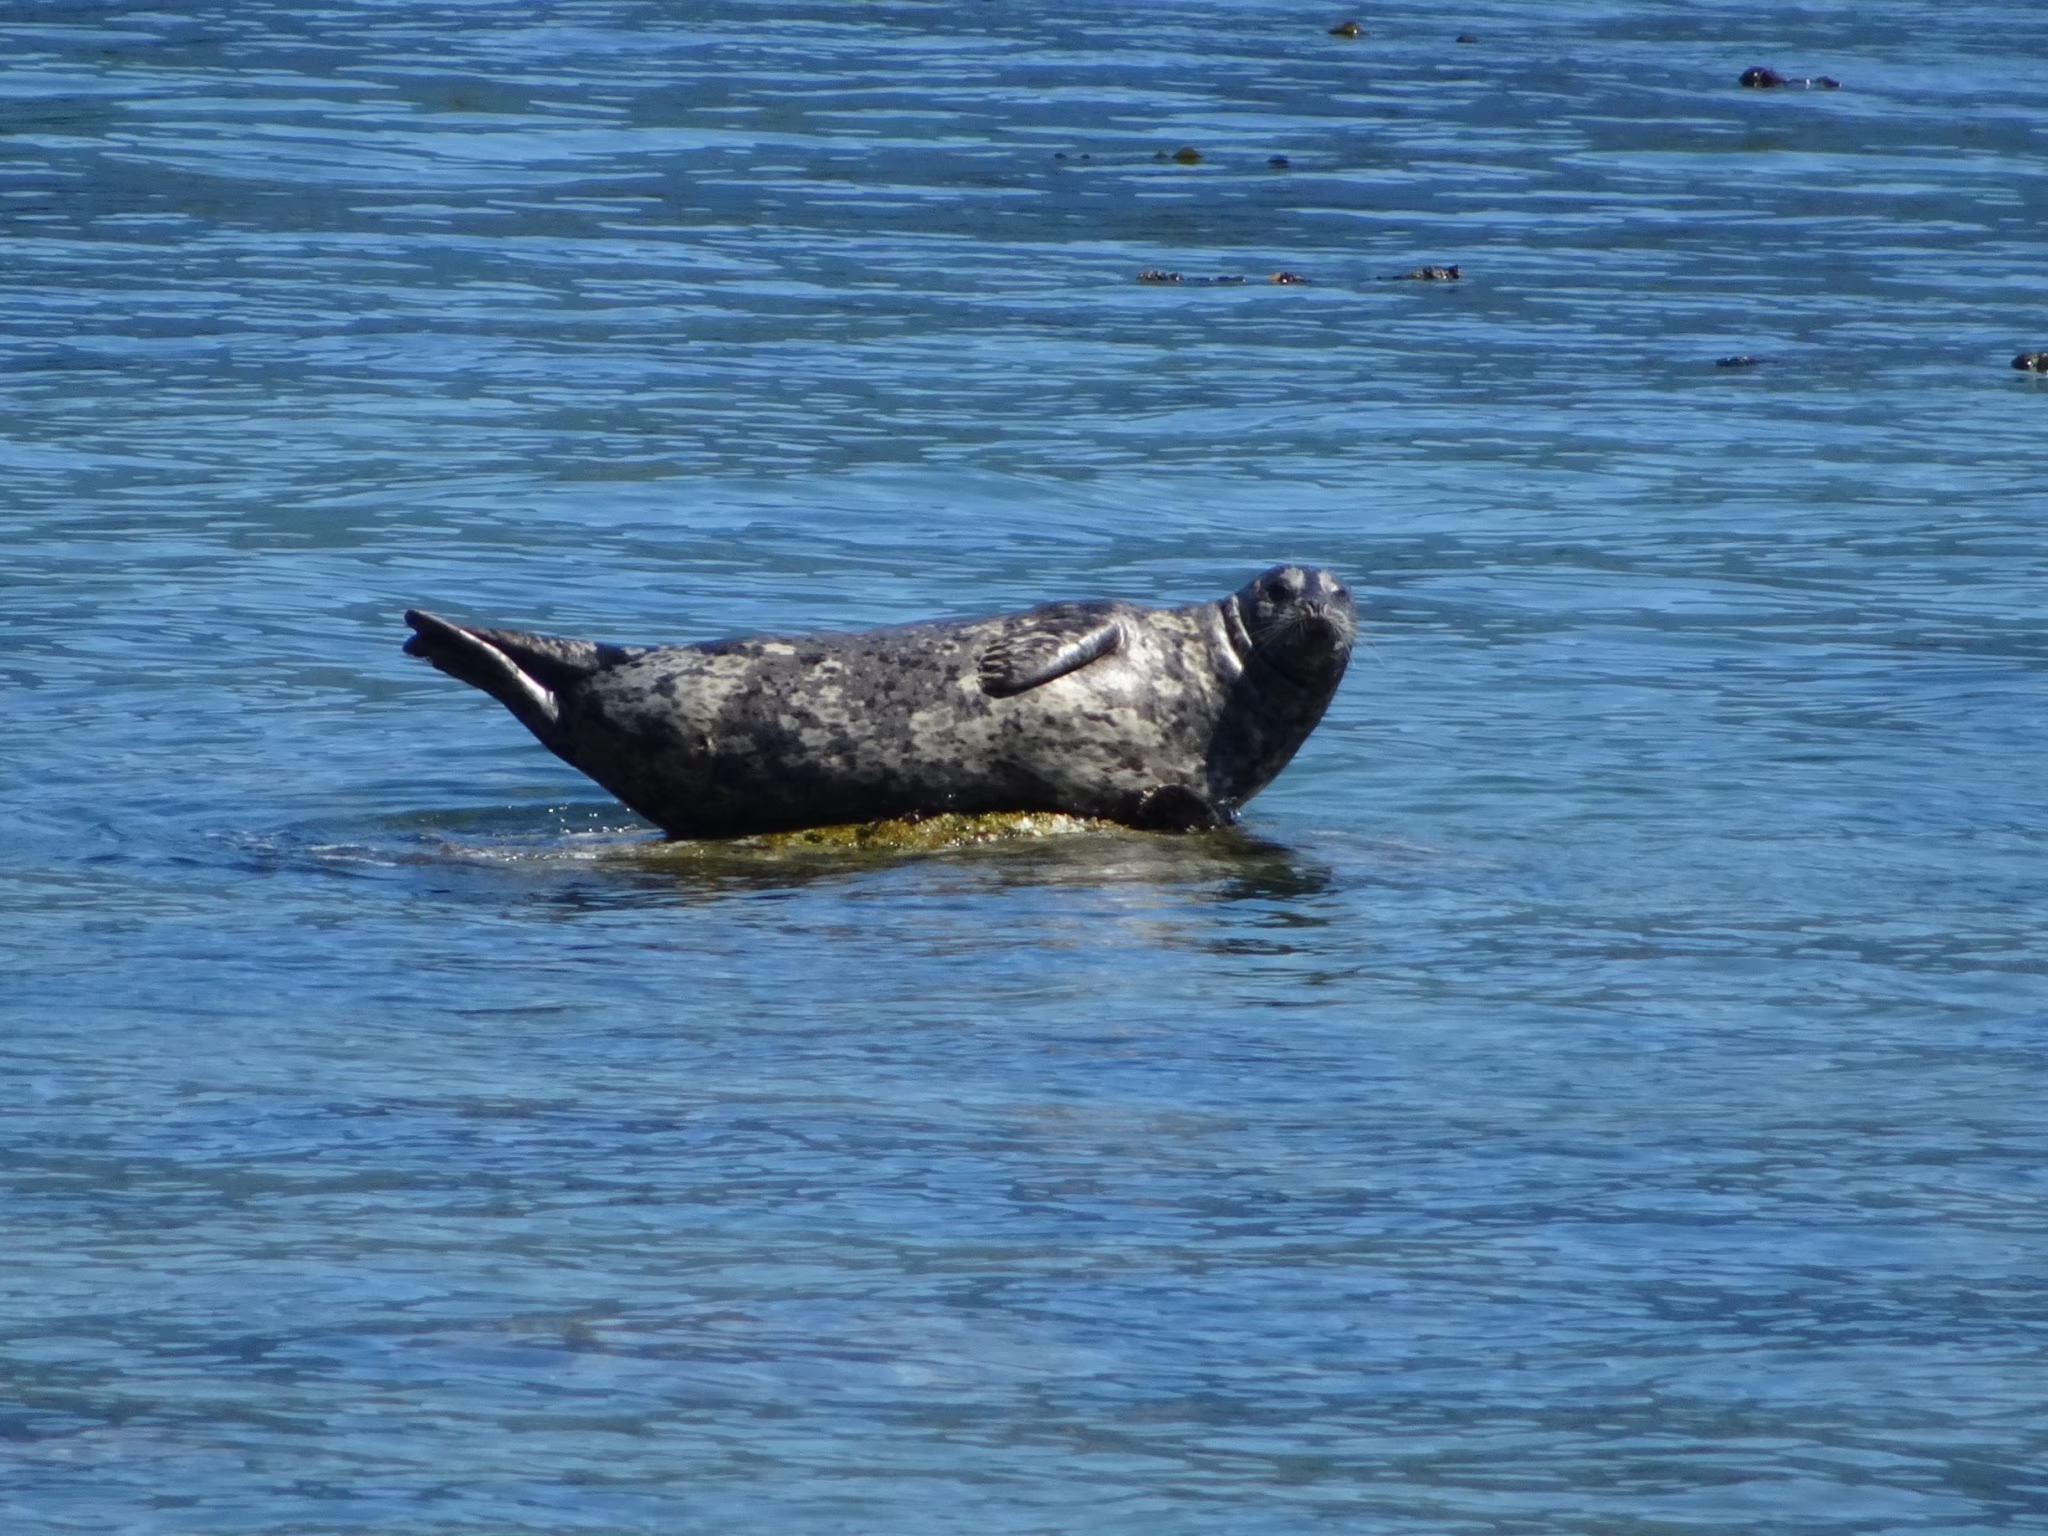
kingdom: Animalia
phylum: Chordata
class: Mammalia
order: Carnivora
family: Phocidae
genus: Phoca
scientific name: Phoca vitulina
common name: Harbor seal
